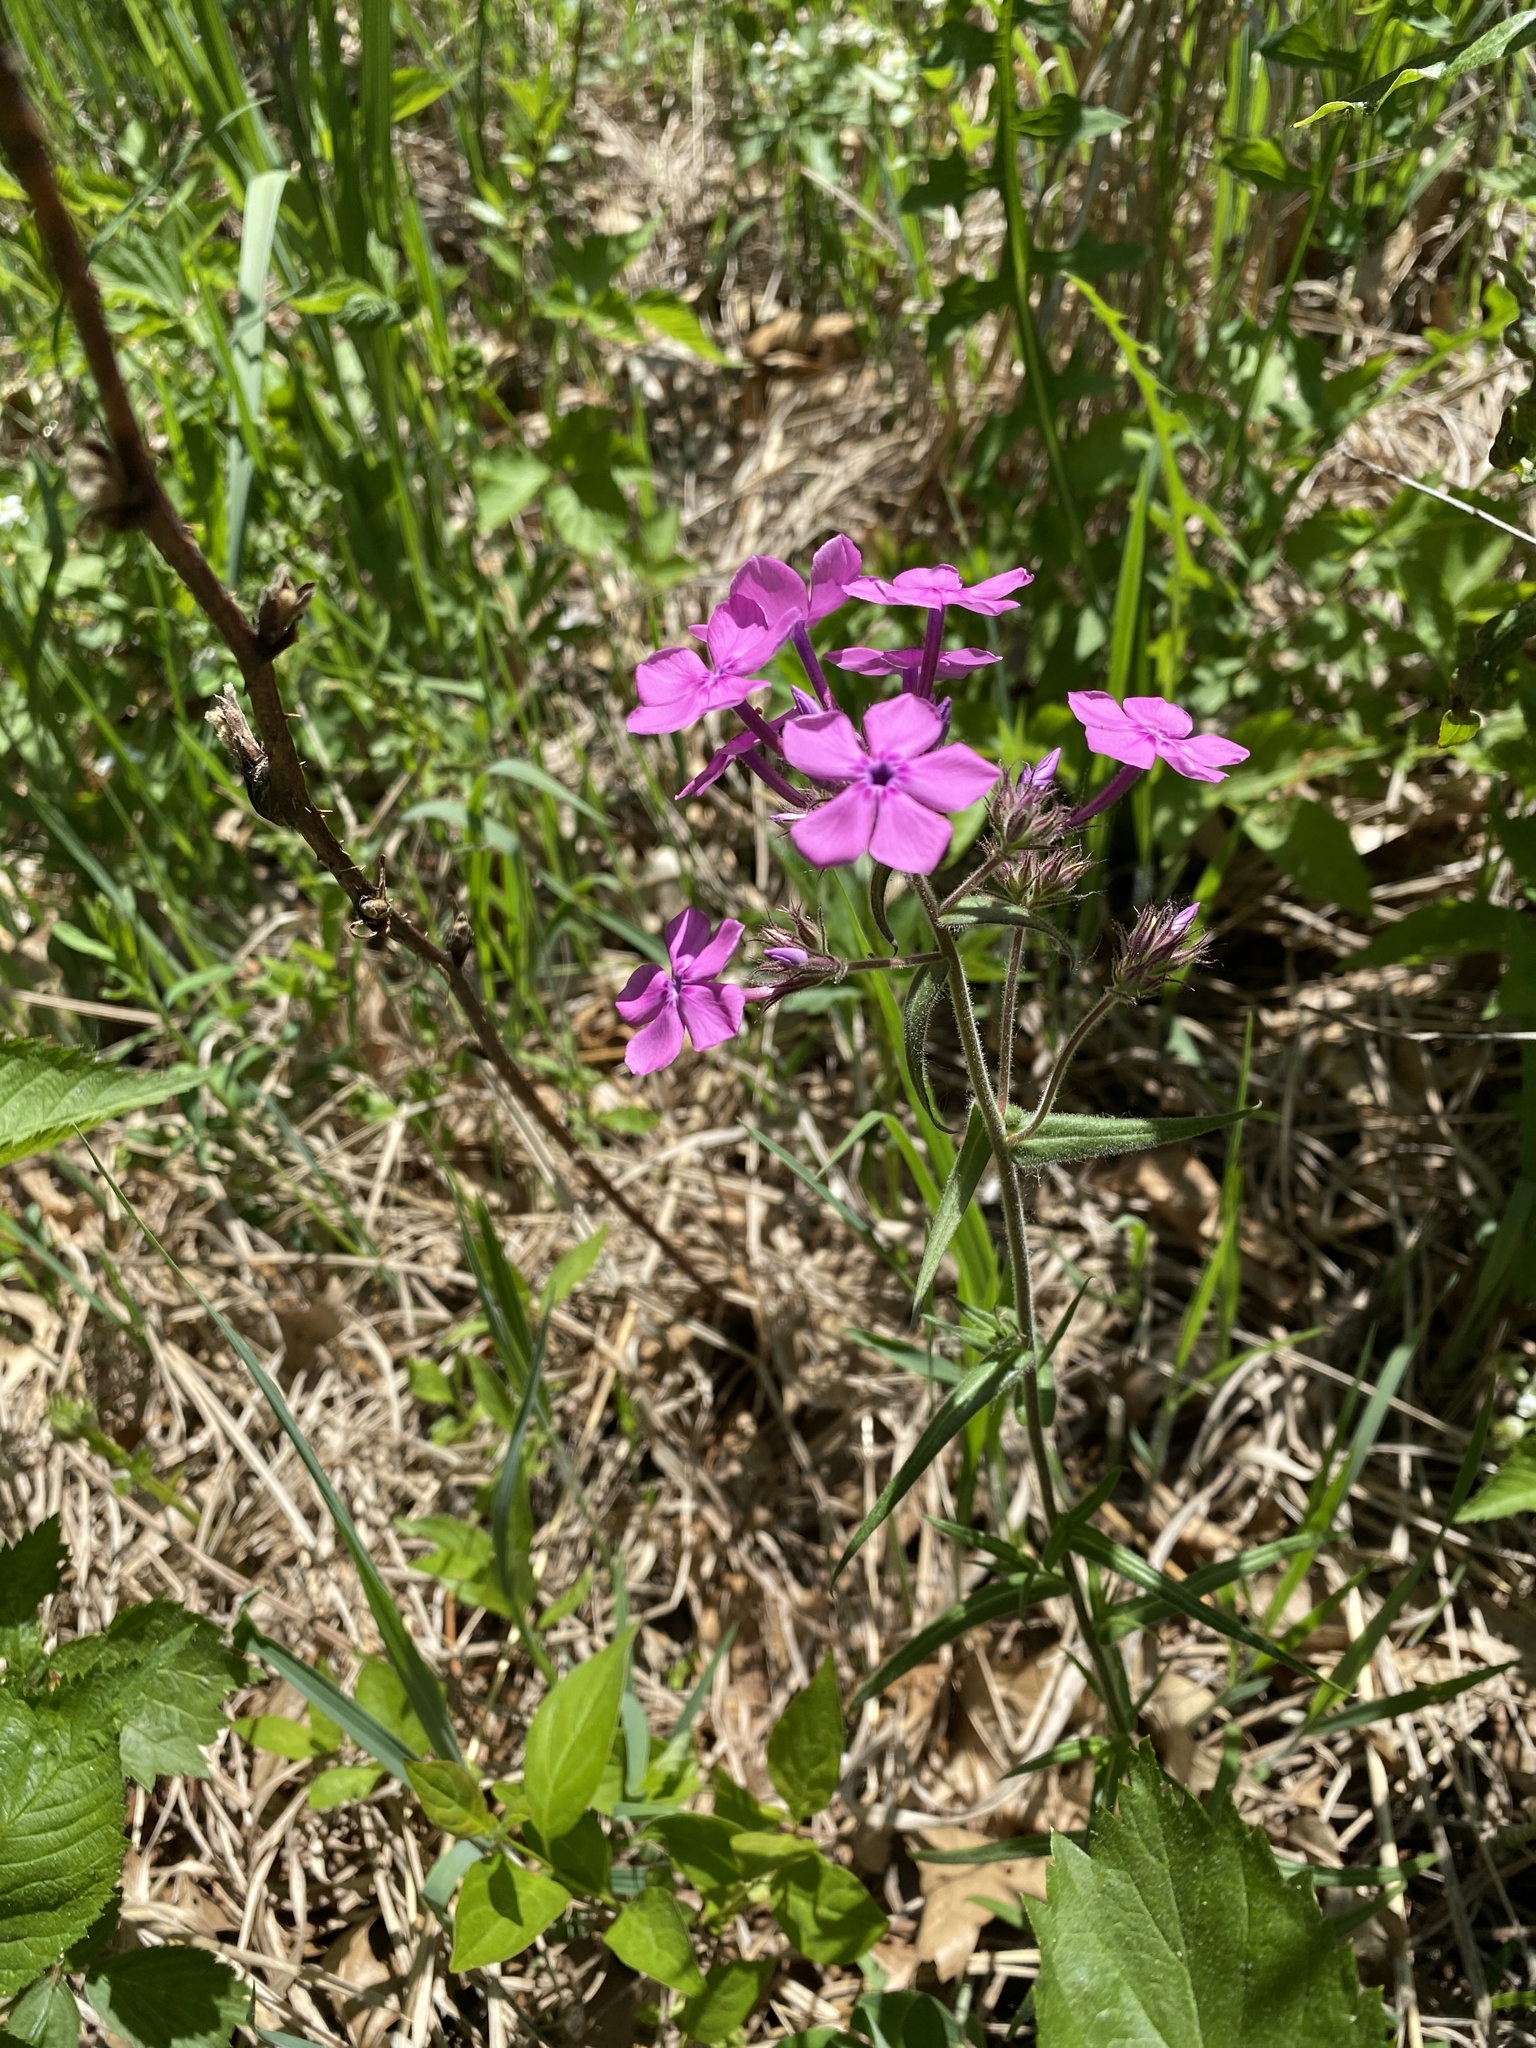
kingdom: Plantae
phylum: Tracheophyta
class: Magnoliopsida
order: Ericales
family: Polemoniaceae
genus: Phlox
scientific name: Phlox pilosa
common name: Prairie phlox
